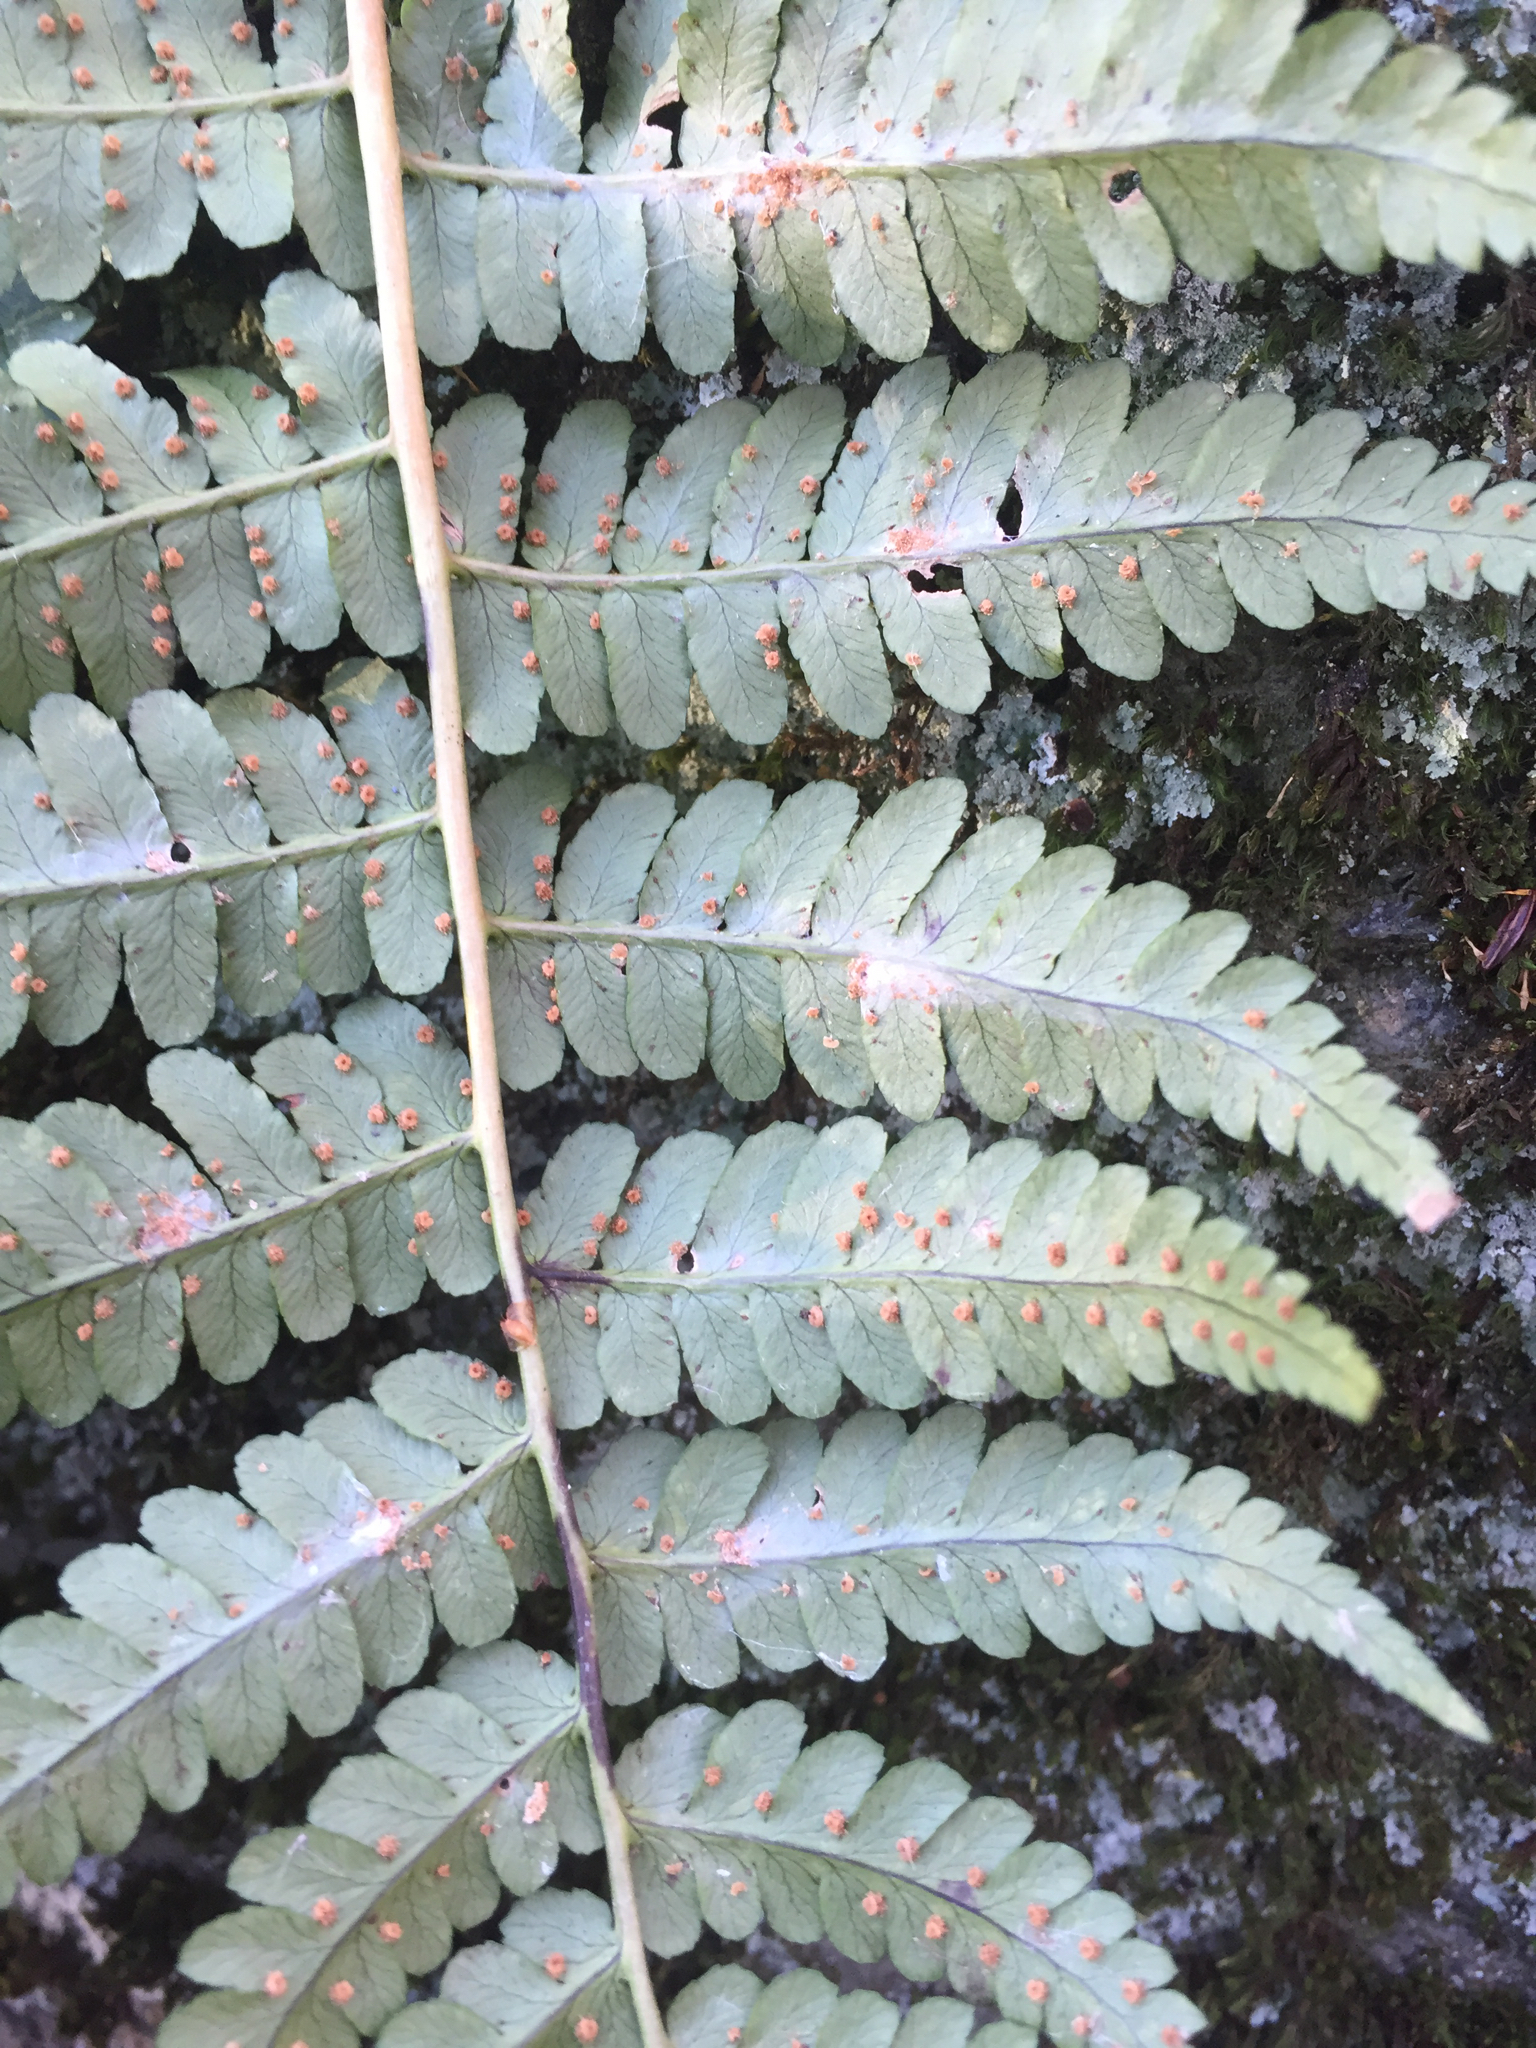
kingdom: Plantae
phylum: Tracheophyta
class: Polypodiopsida
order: Polypodiales
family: Dryopteridaceae
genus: Dryopteris
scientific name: Dryopteris marginalis
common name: Marginal wood fern
